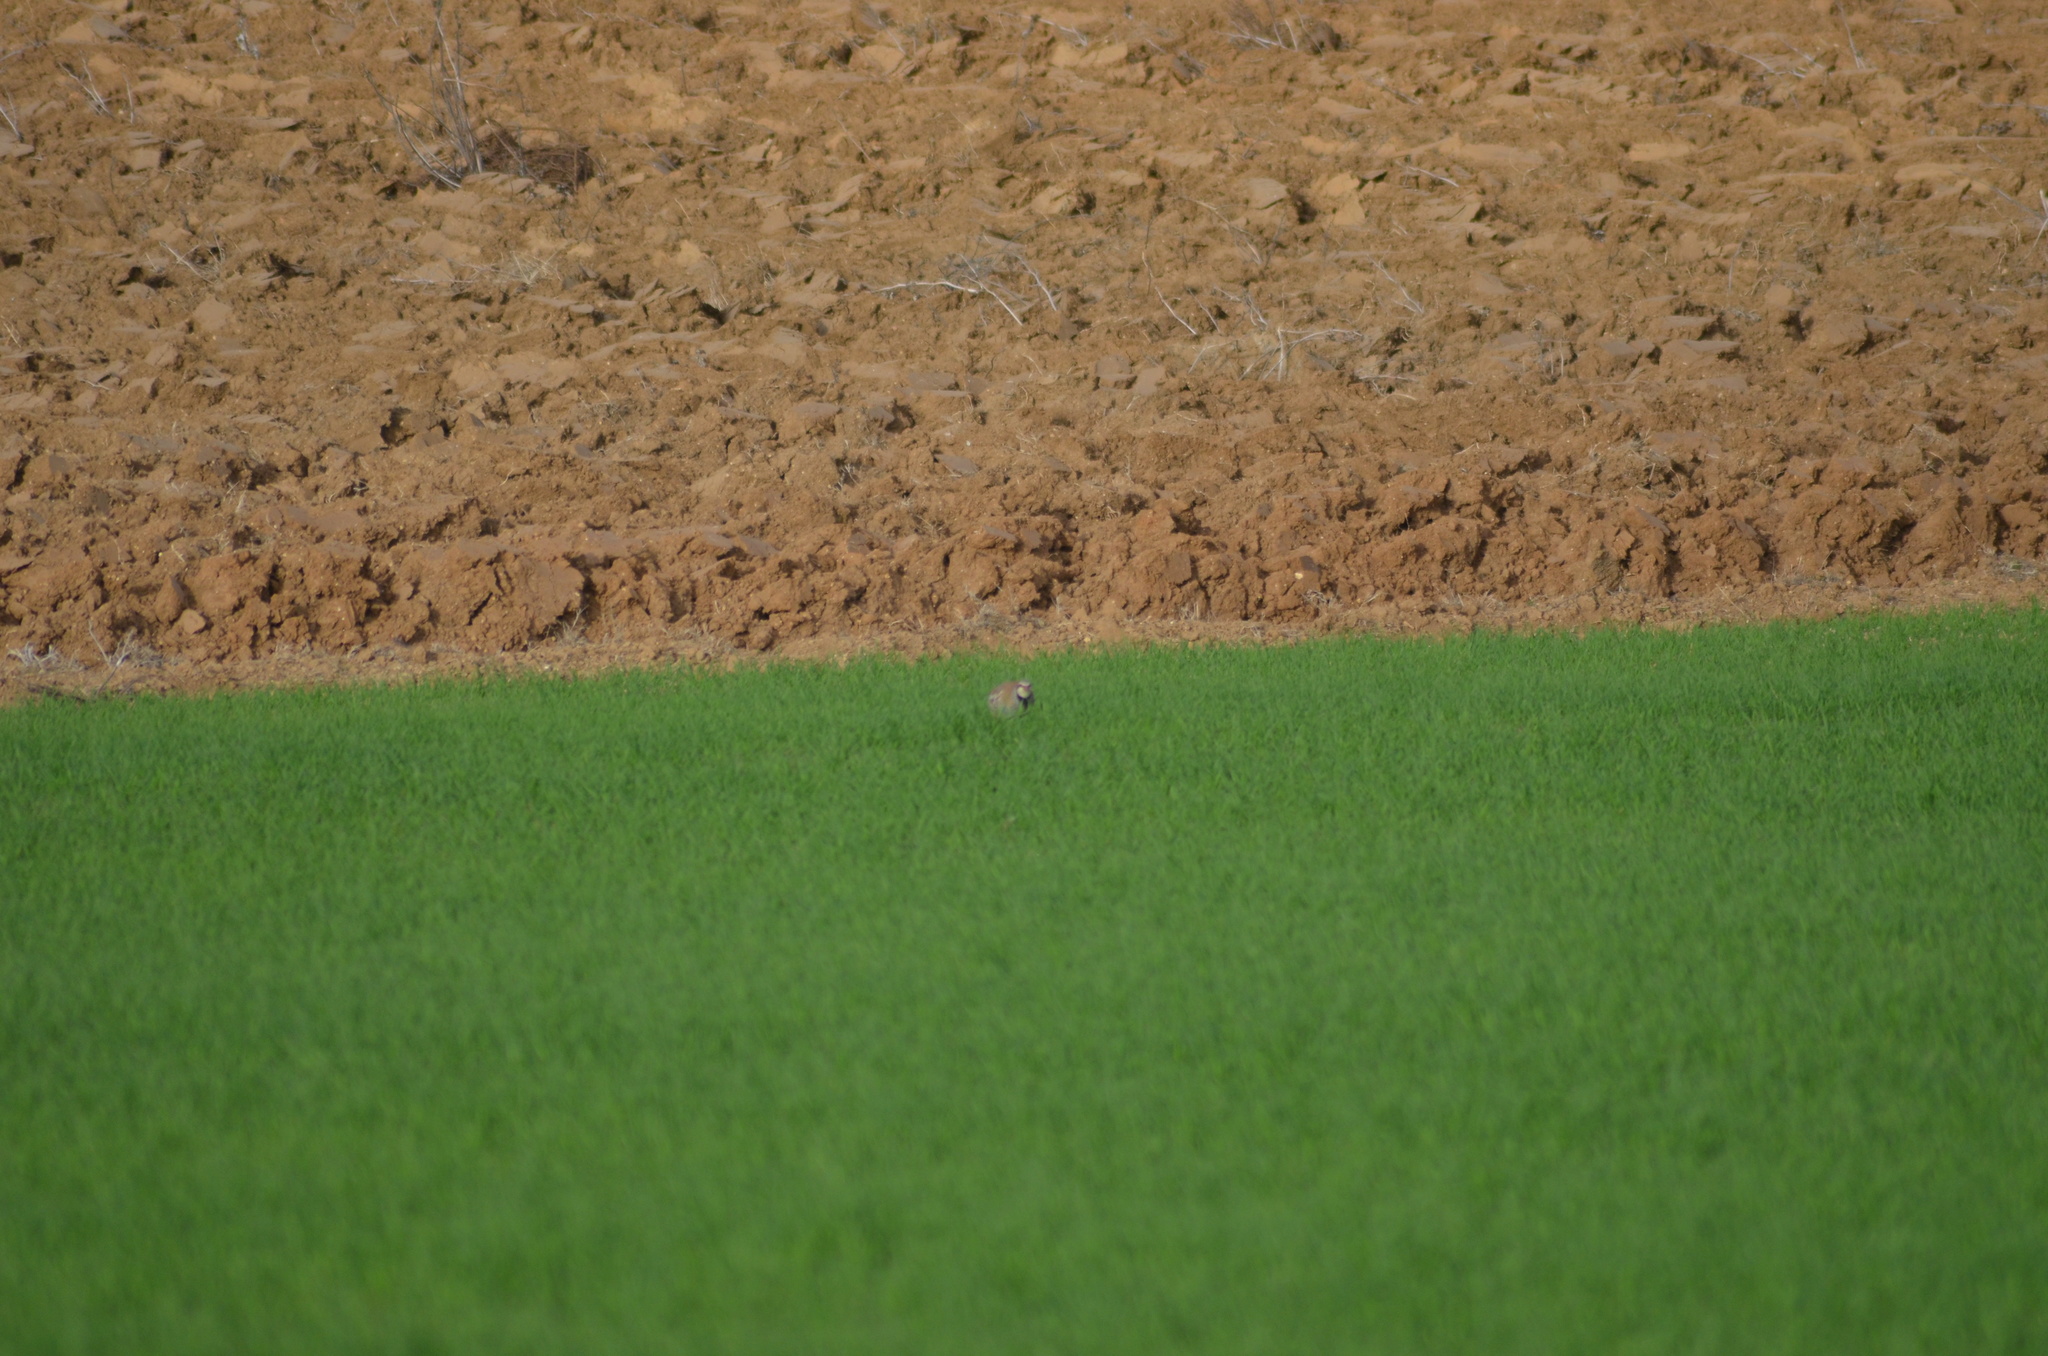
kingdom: Animalia
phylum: Chordata
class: Aves
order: Galliformes
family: Phasianidae
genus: Alectoris
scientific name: Alectoris rufa
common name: Red-legged partridge
